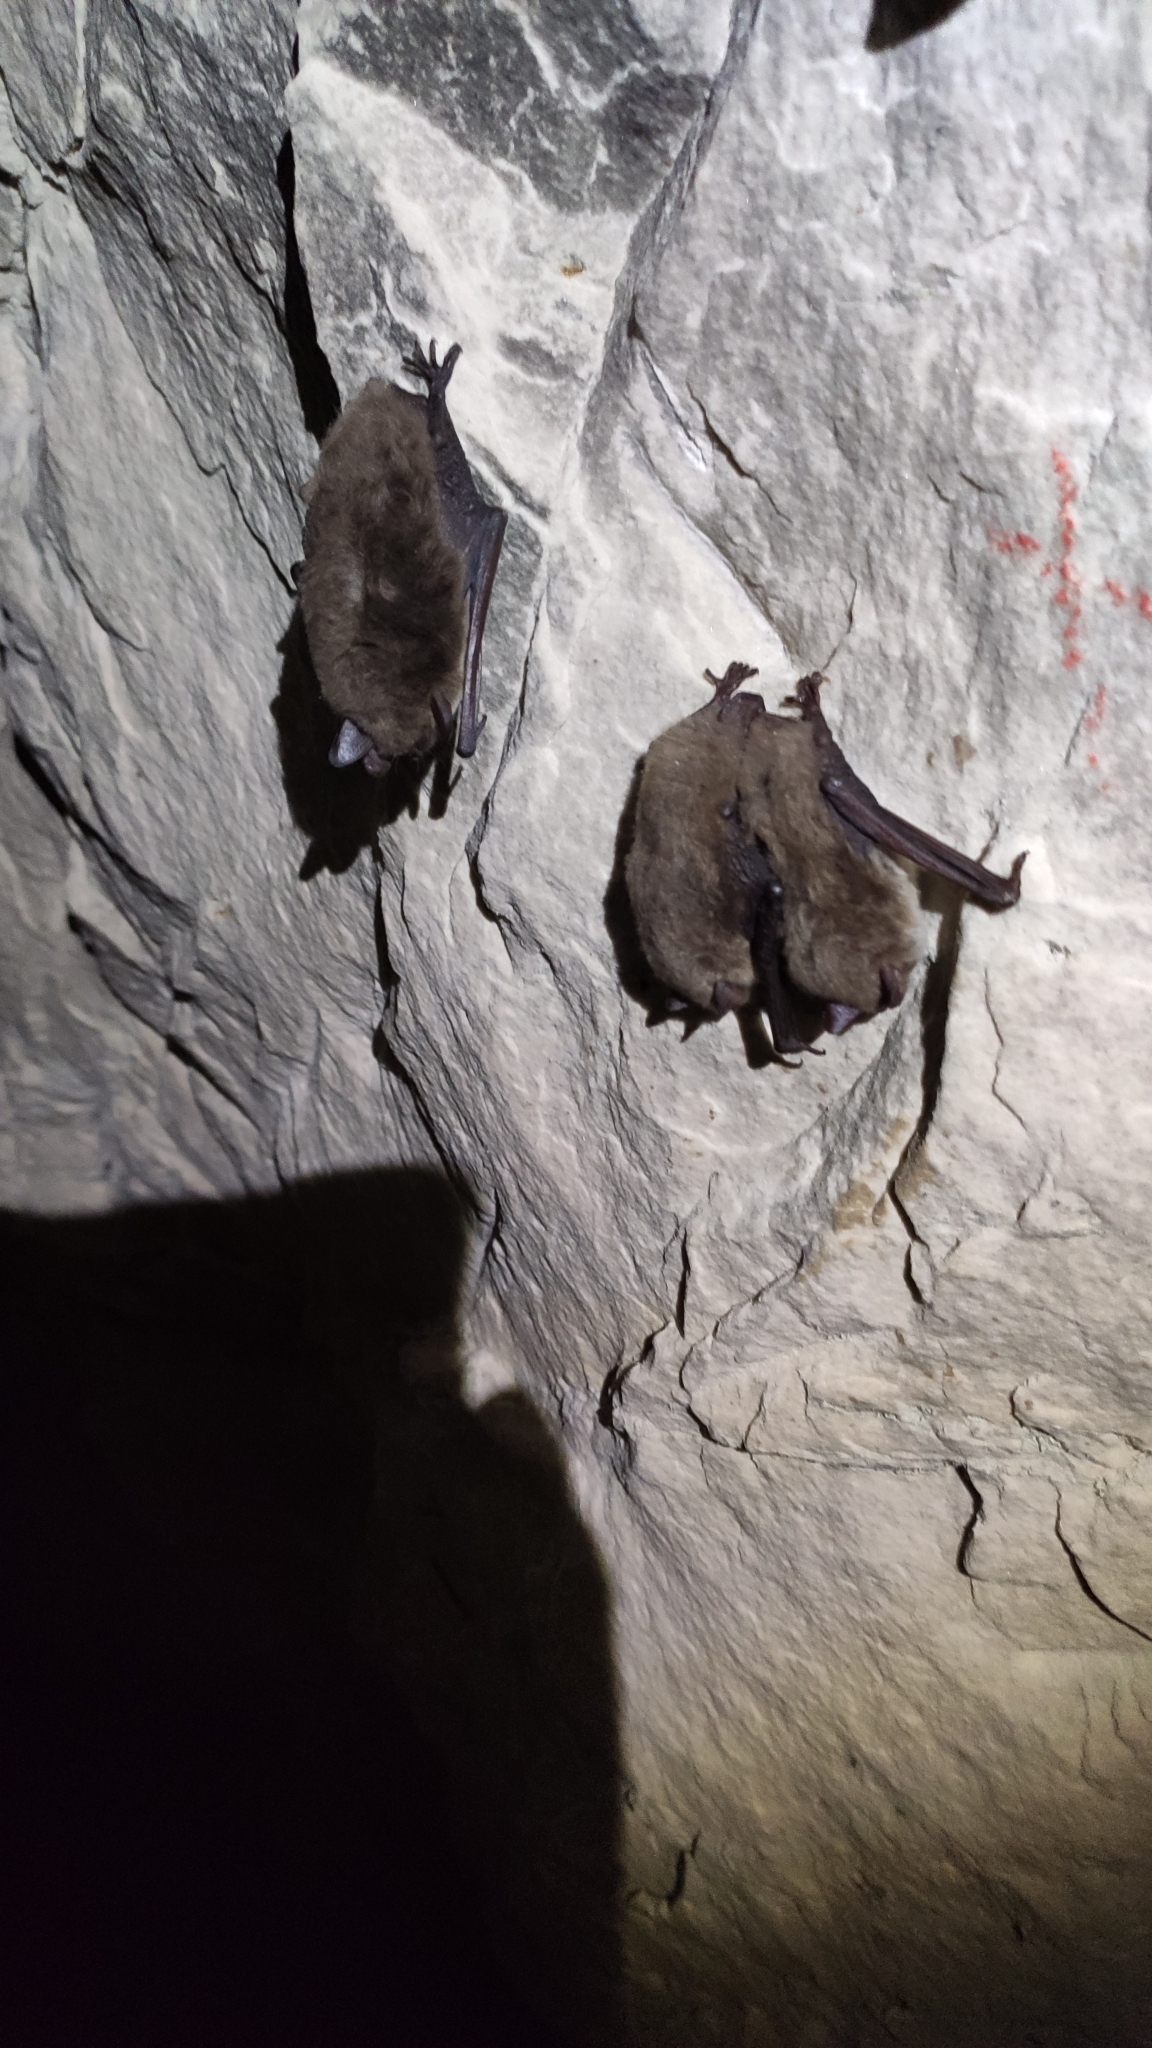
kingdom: Animalia
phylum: Chordata
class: Mammalia
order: Chiroptera
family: Vespertilionidae
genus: Myotis
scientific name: Myotis daubentonii
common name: Daubenton's myotis
